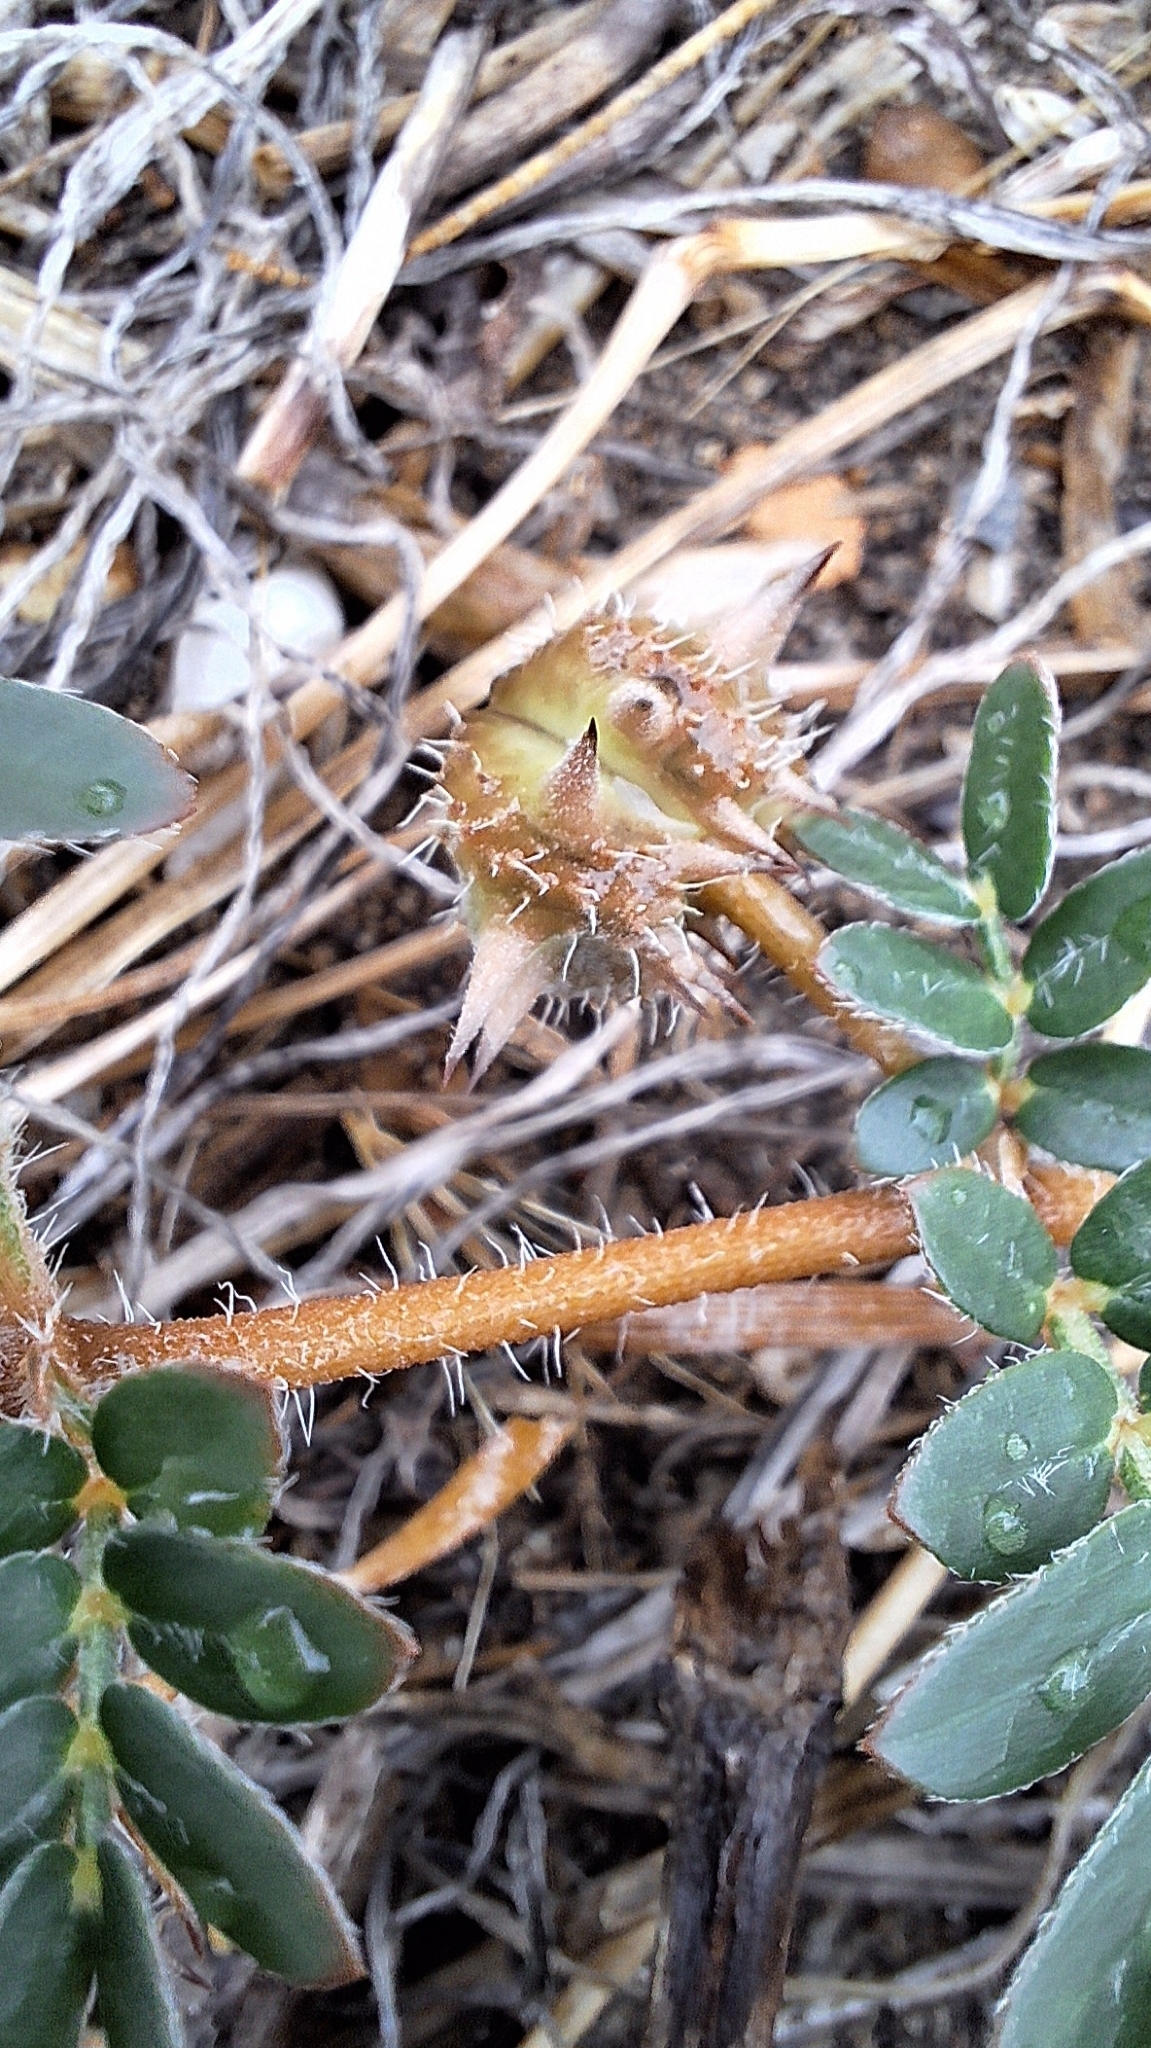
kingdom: Plantae
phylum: Tracheophyta
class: Magnoliopsida
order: Zygophyllales
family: Zygophyllaceae
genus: Tribulus
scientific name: Tribulus terrestris
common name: Puncturevine
